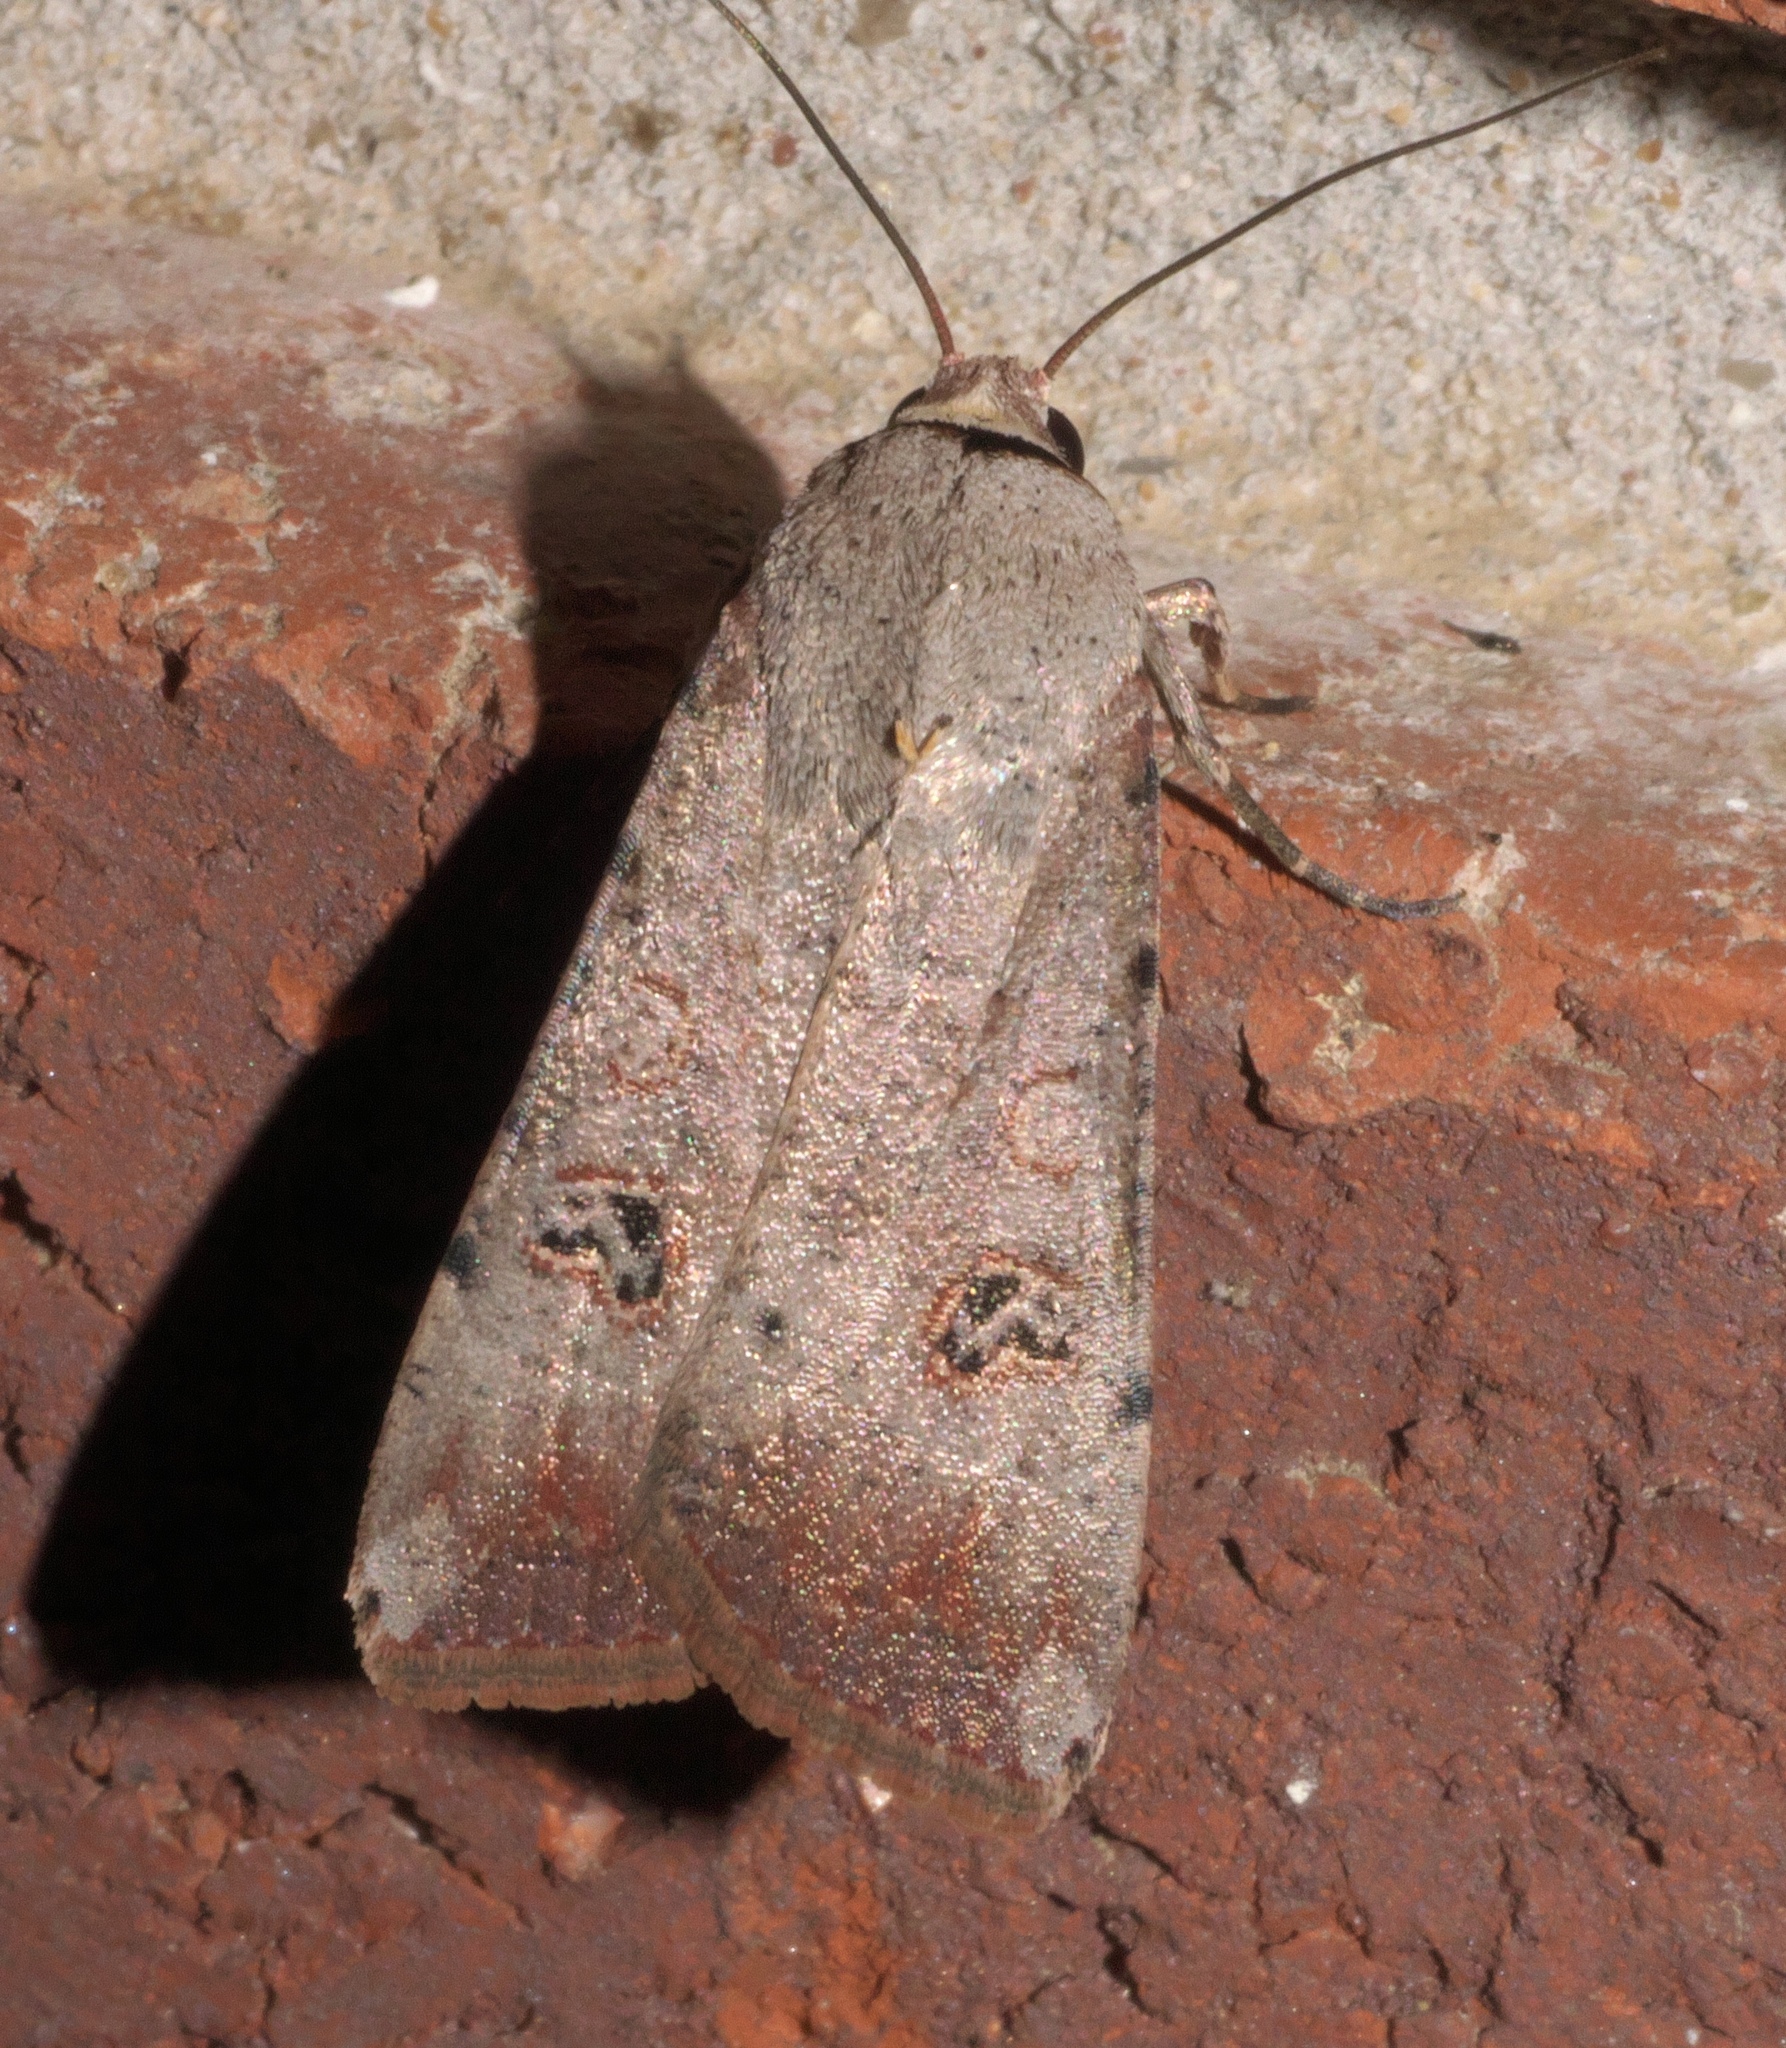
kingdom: Animalia
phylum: Arthropoda
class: Insecta
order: Lepidoptera
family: Noctuidae
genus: Anicla
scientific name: Anicla infecta
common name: Green cutworm
